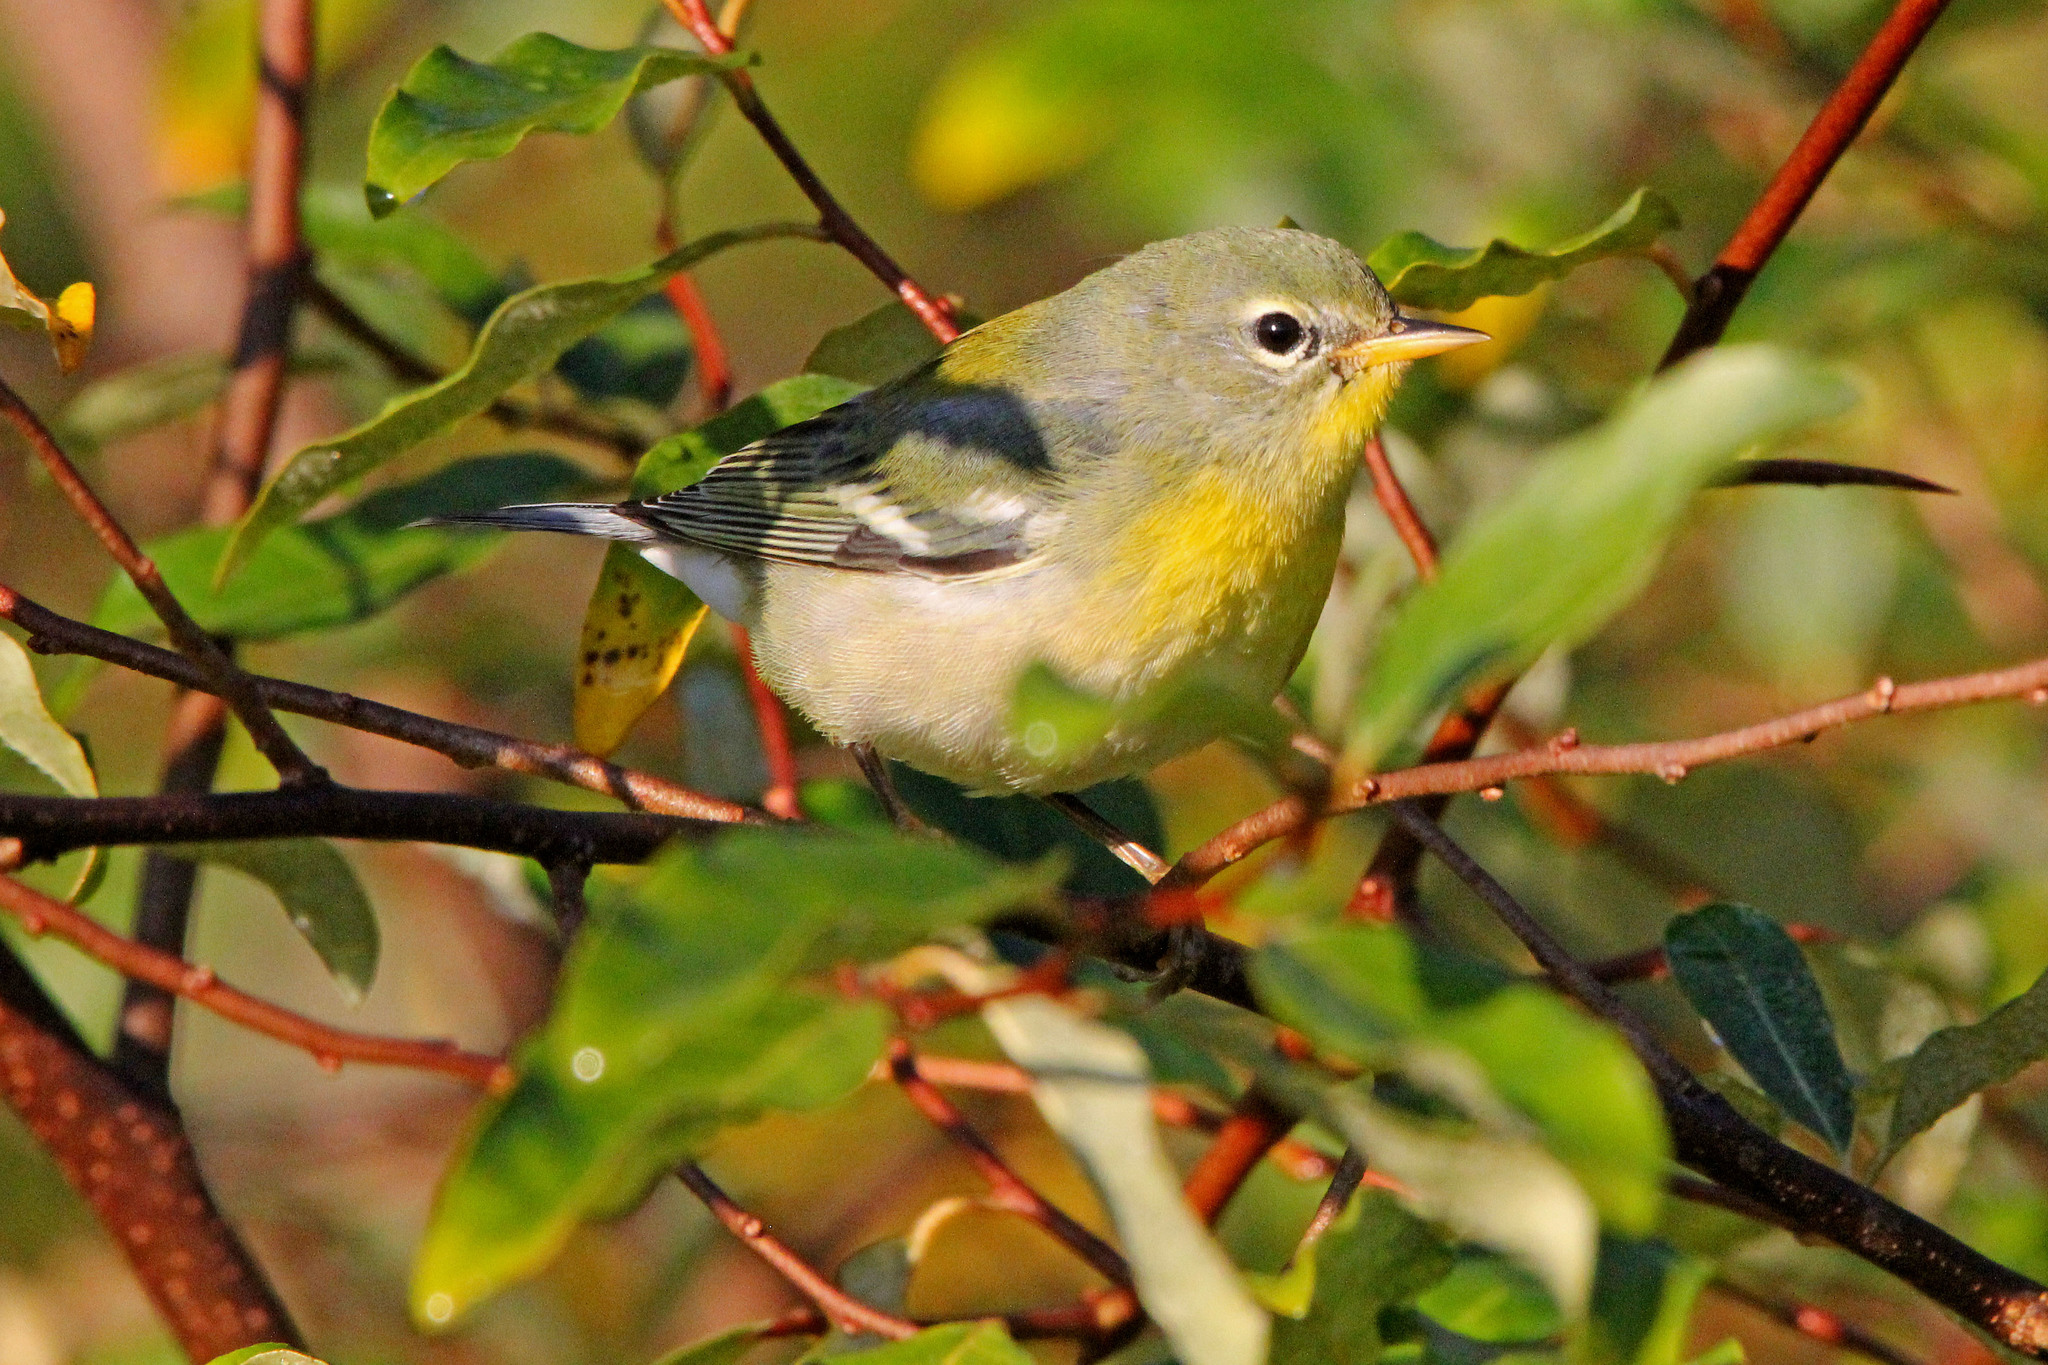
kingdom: Animalia
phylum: Chordata
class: Aves
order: Passeriformes
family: Parulidae
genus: Setophaga
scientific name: Setophaga americana
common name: Northern parula
